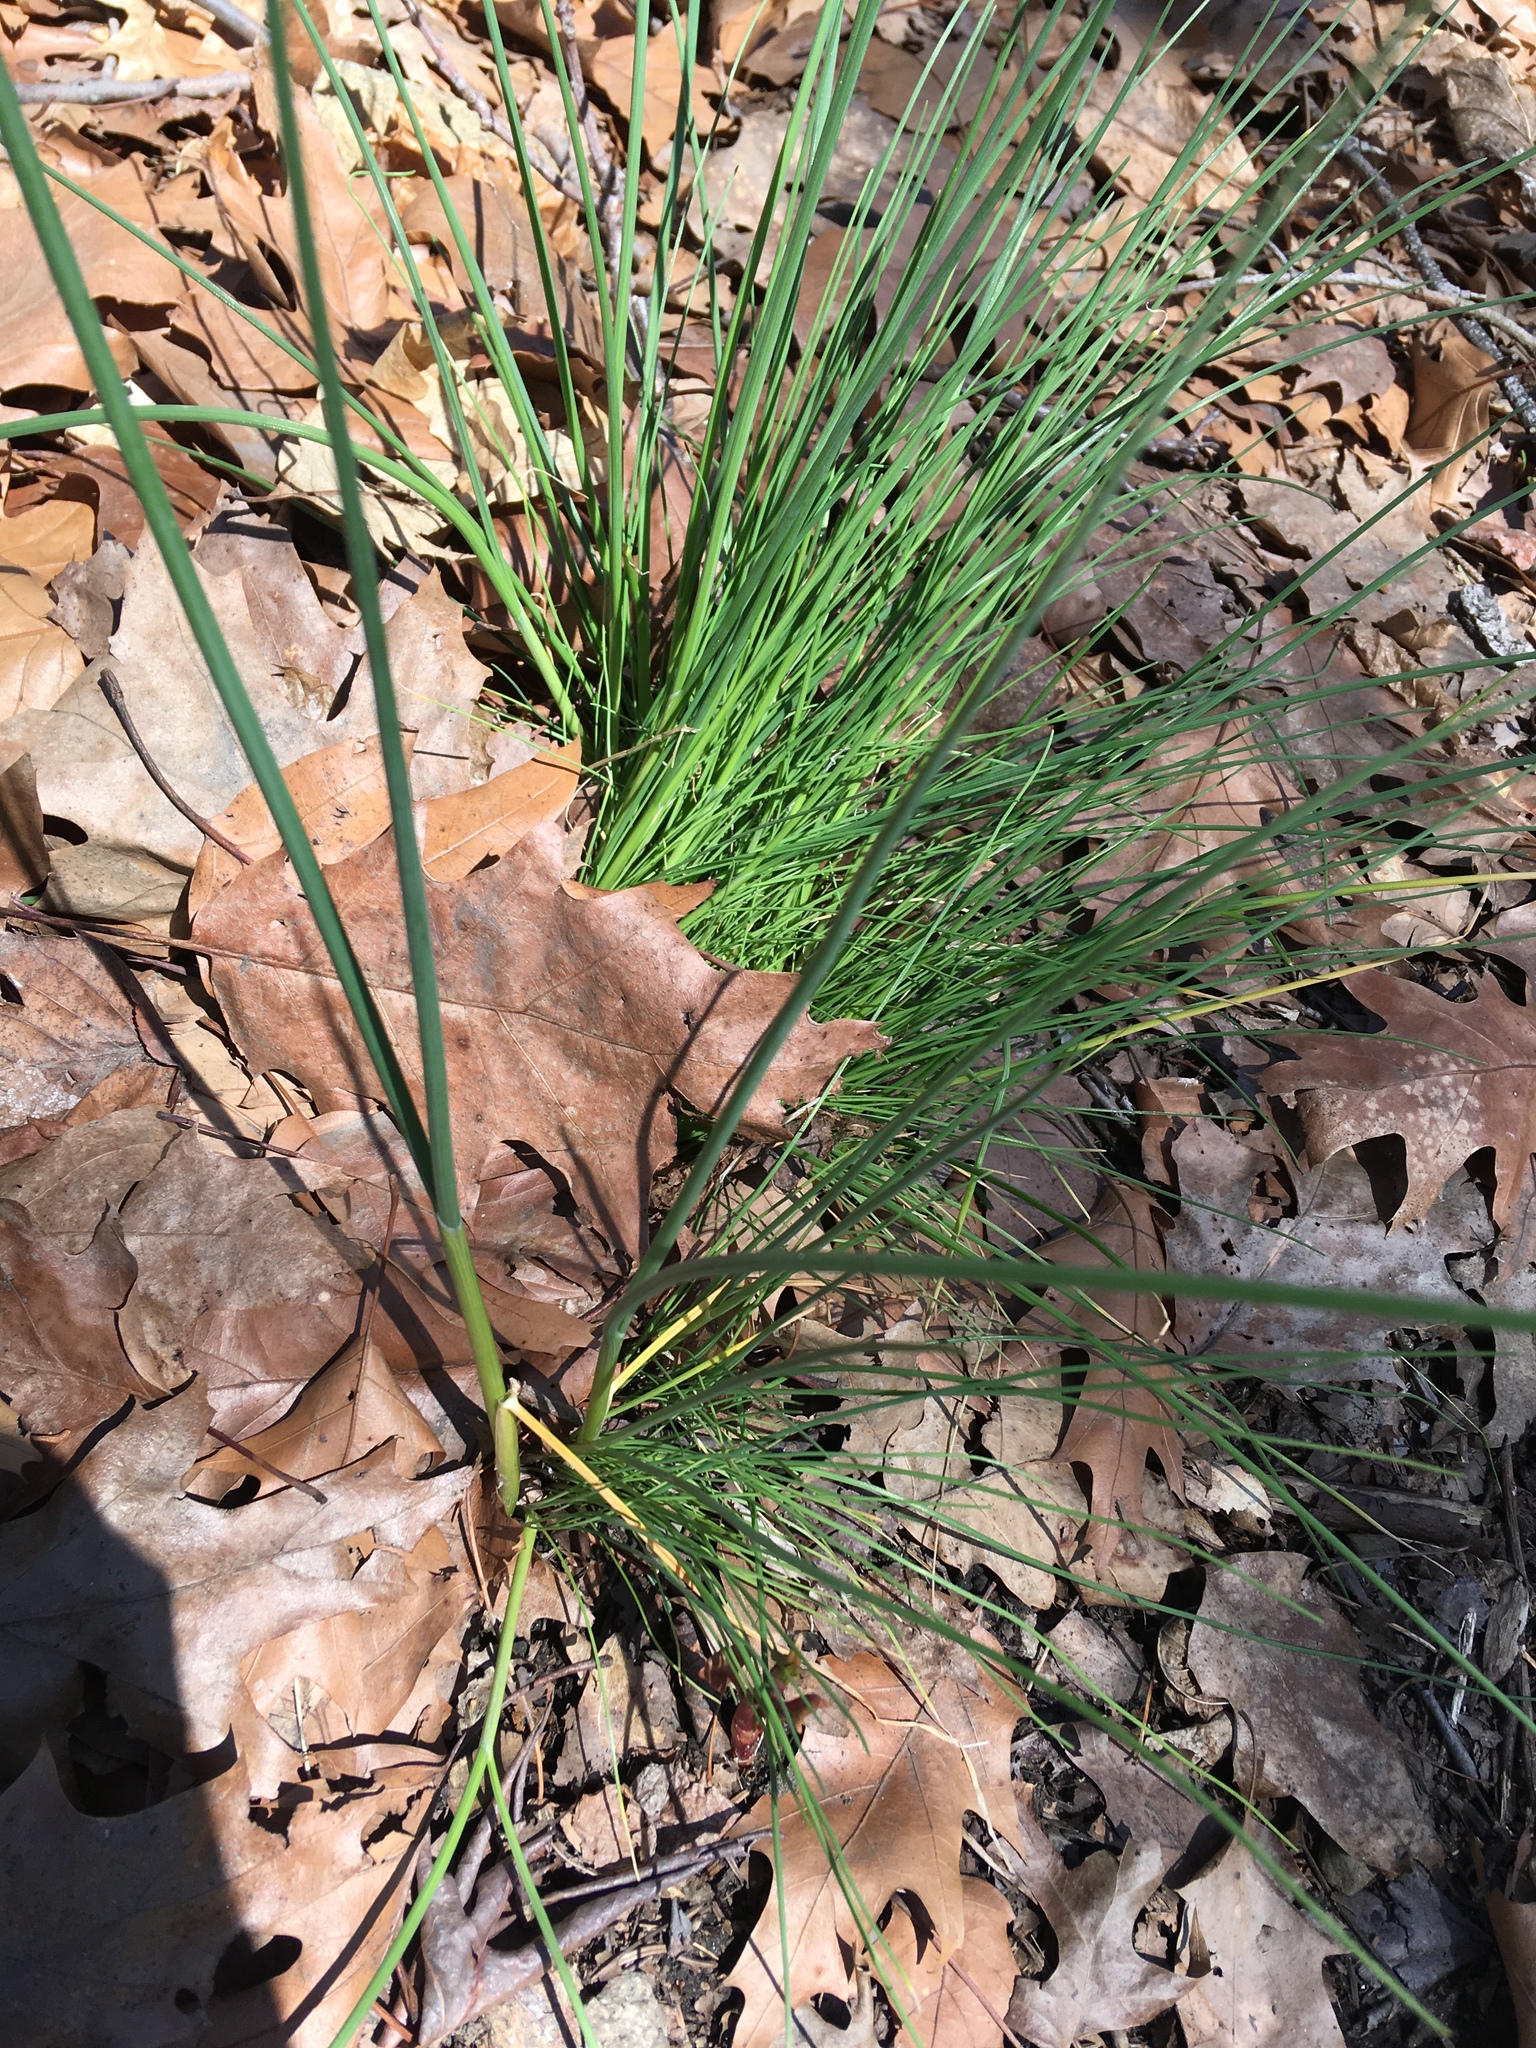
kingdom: Plantae
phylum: Tracheophyta
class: Liliopsida
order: Asparagales
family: Amaryllidaceae
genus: Allium
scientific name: Allium vineale
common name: Crow garlic
